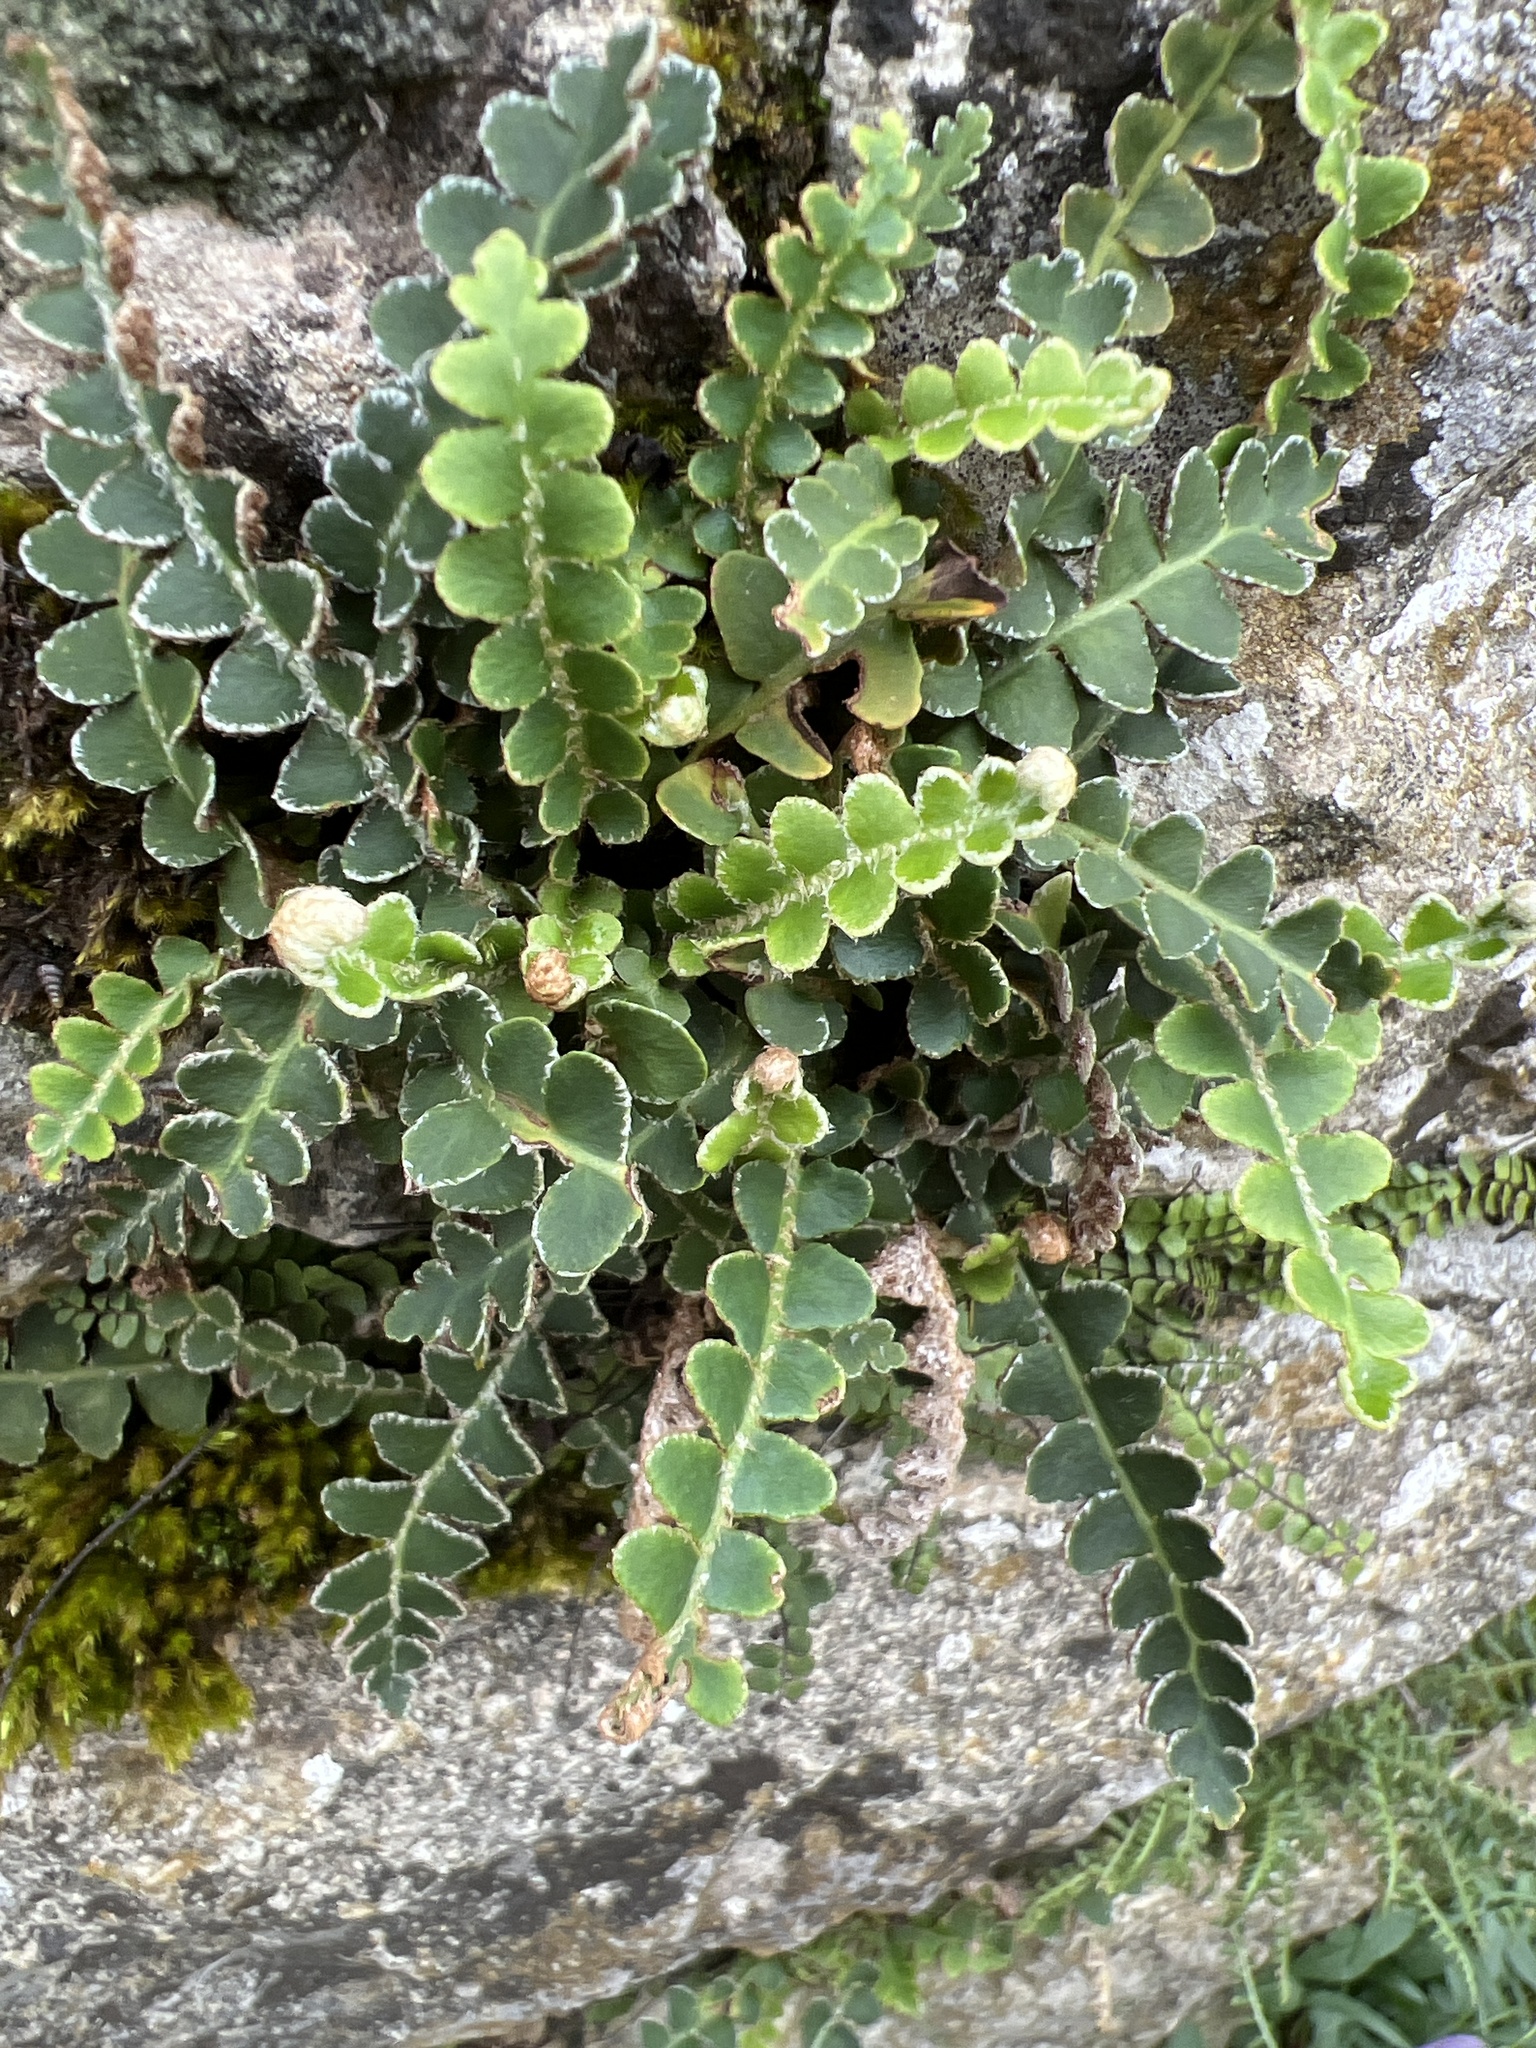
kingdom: Plantae
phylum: Tracheophyta
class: Polypodiopsida
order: Polypodiales
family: Aspleniaceae
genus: Asplenium
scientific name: Asplenium ceterach
